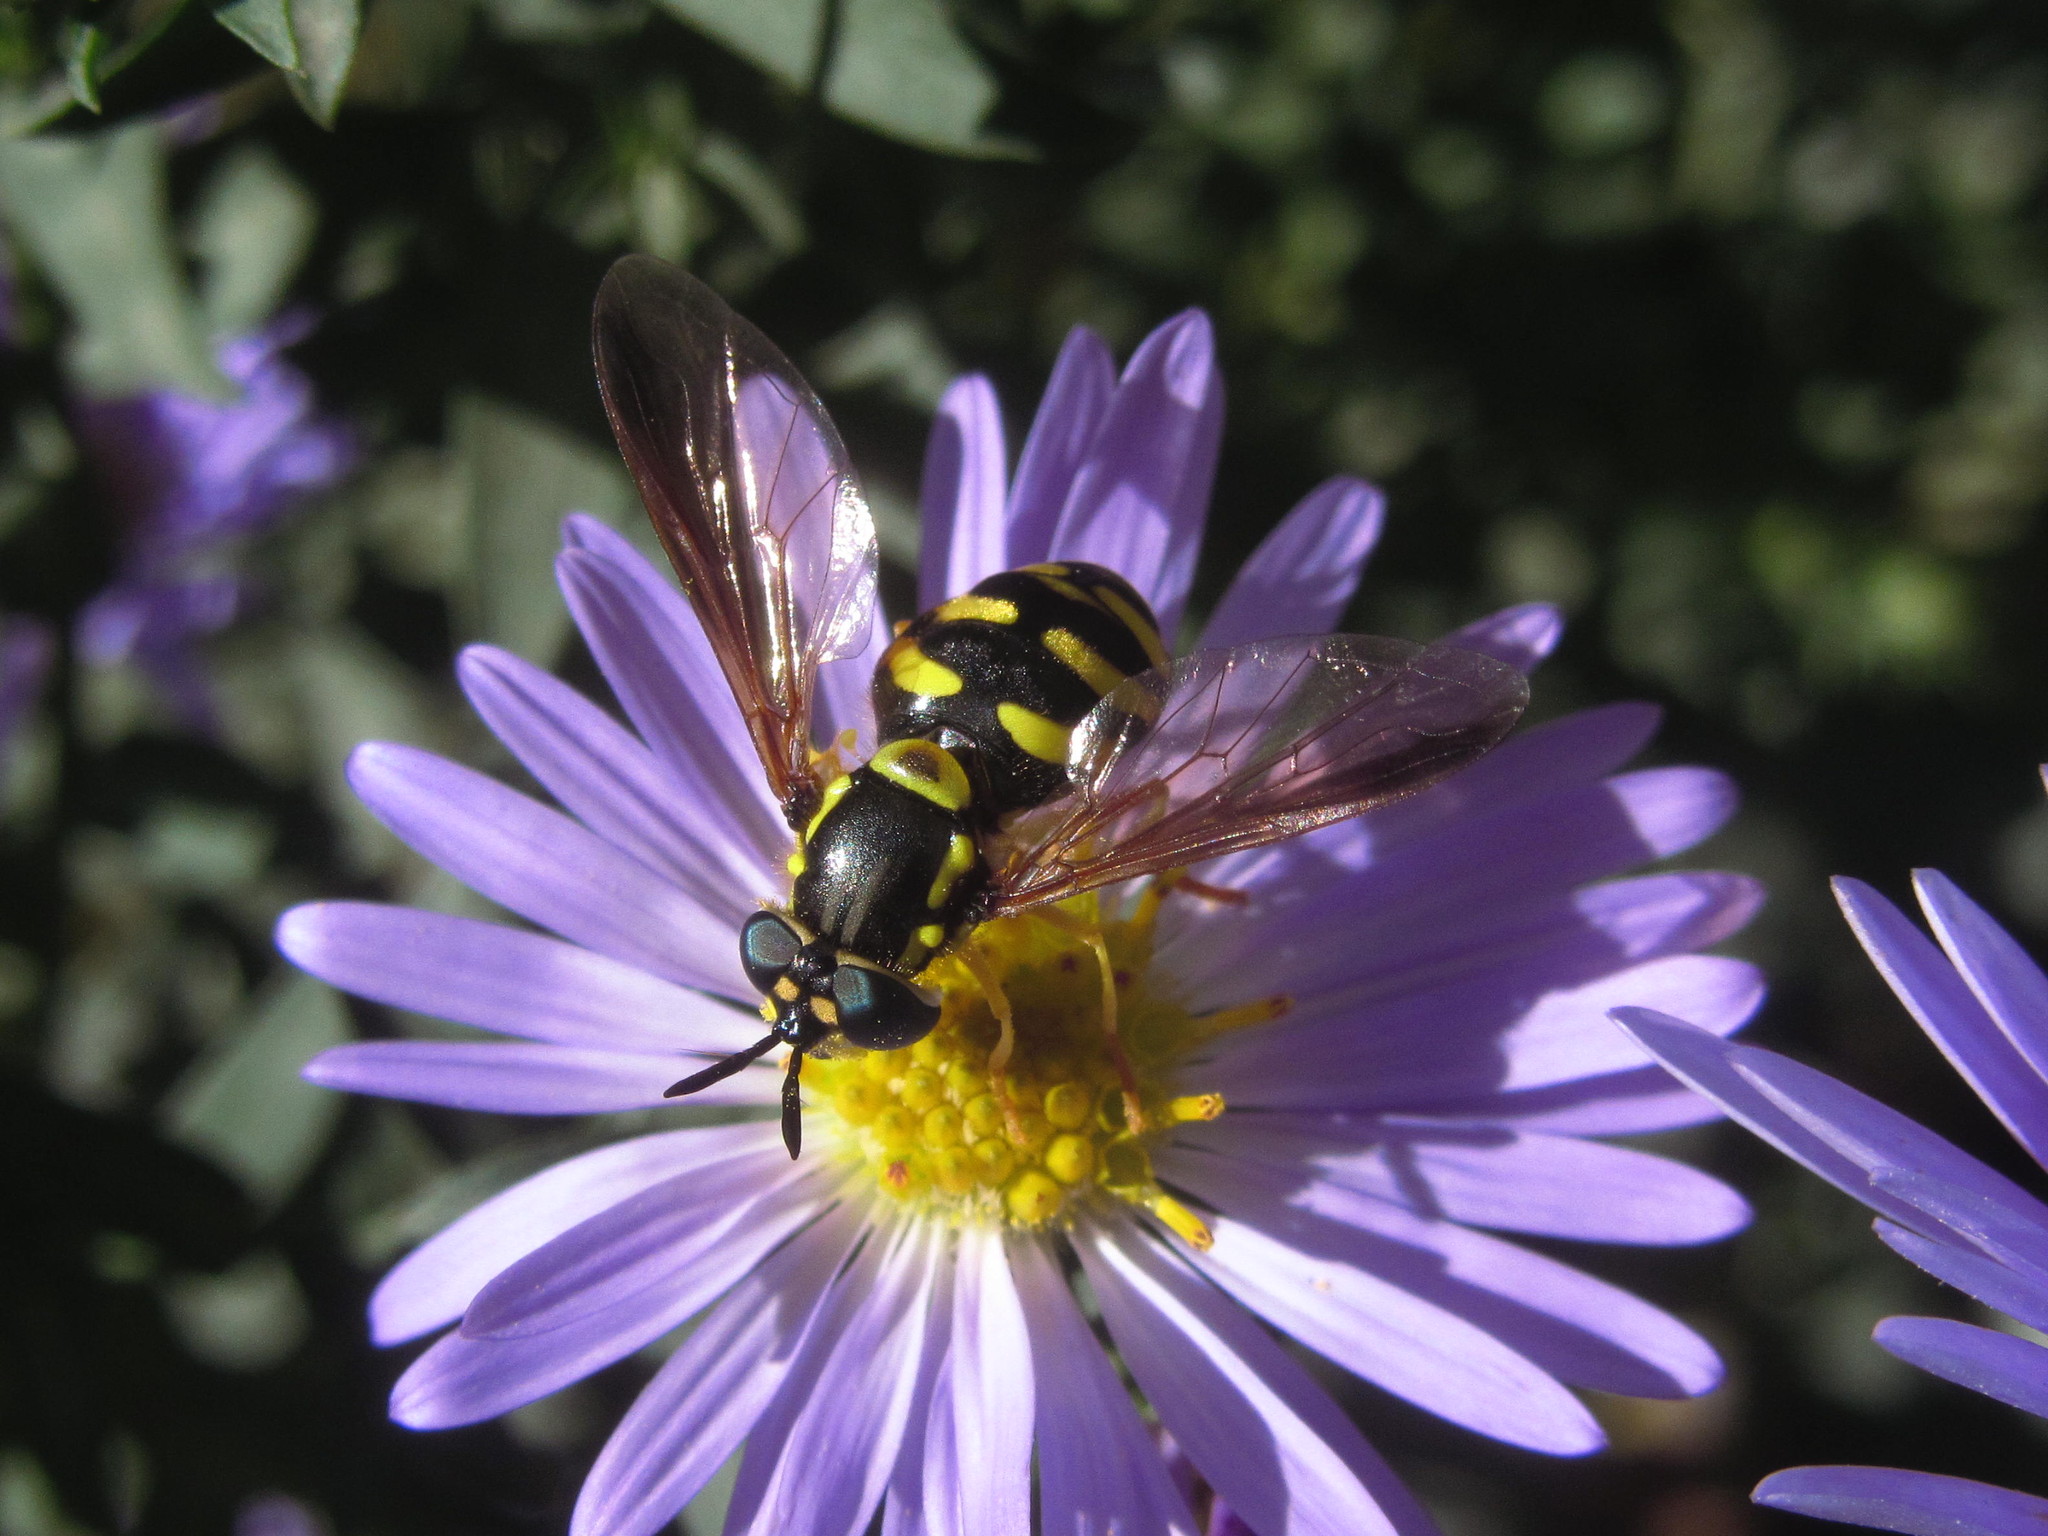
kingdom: Animalia
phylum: Arthropoda
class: Insecta
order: Diptera
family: Syrphidae
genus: Chrysotoxum
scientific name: Chrysotoxum intermedium
